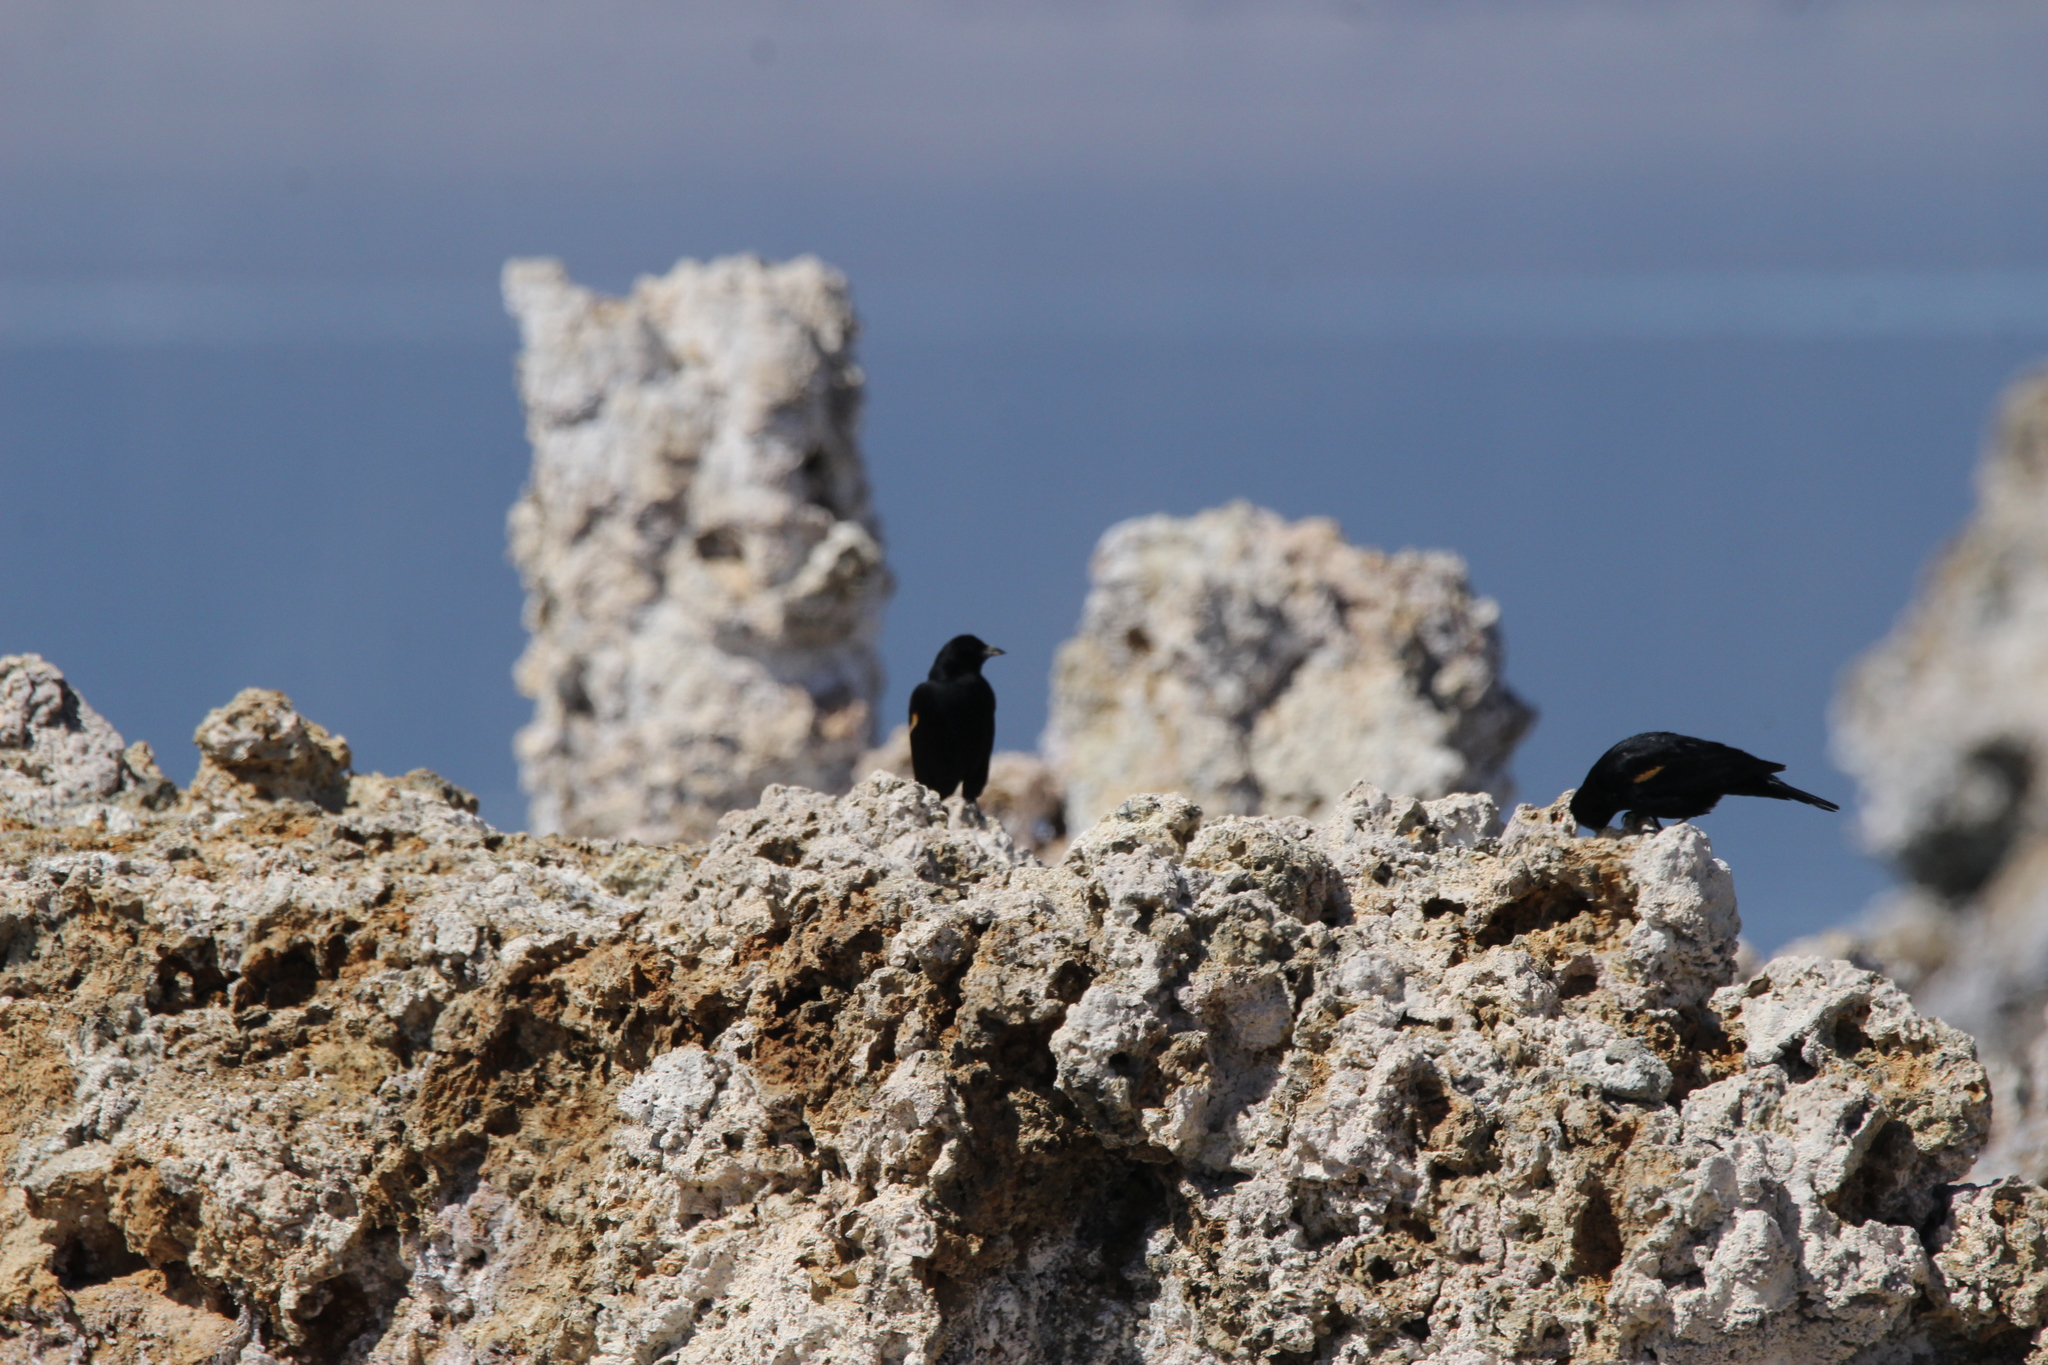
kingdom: Animalia
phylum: Chordata
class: Aves
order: Passeriformes
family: Icteridae
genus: Agelaius
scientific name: Agelaius phoeniceus
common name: Red-winged blackbird
